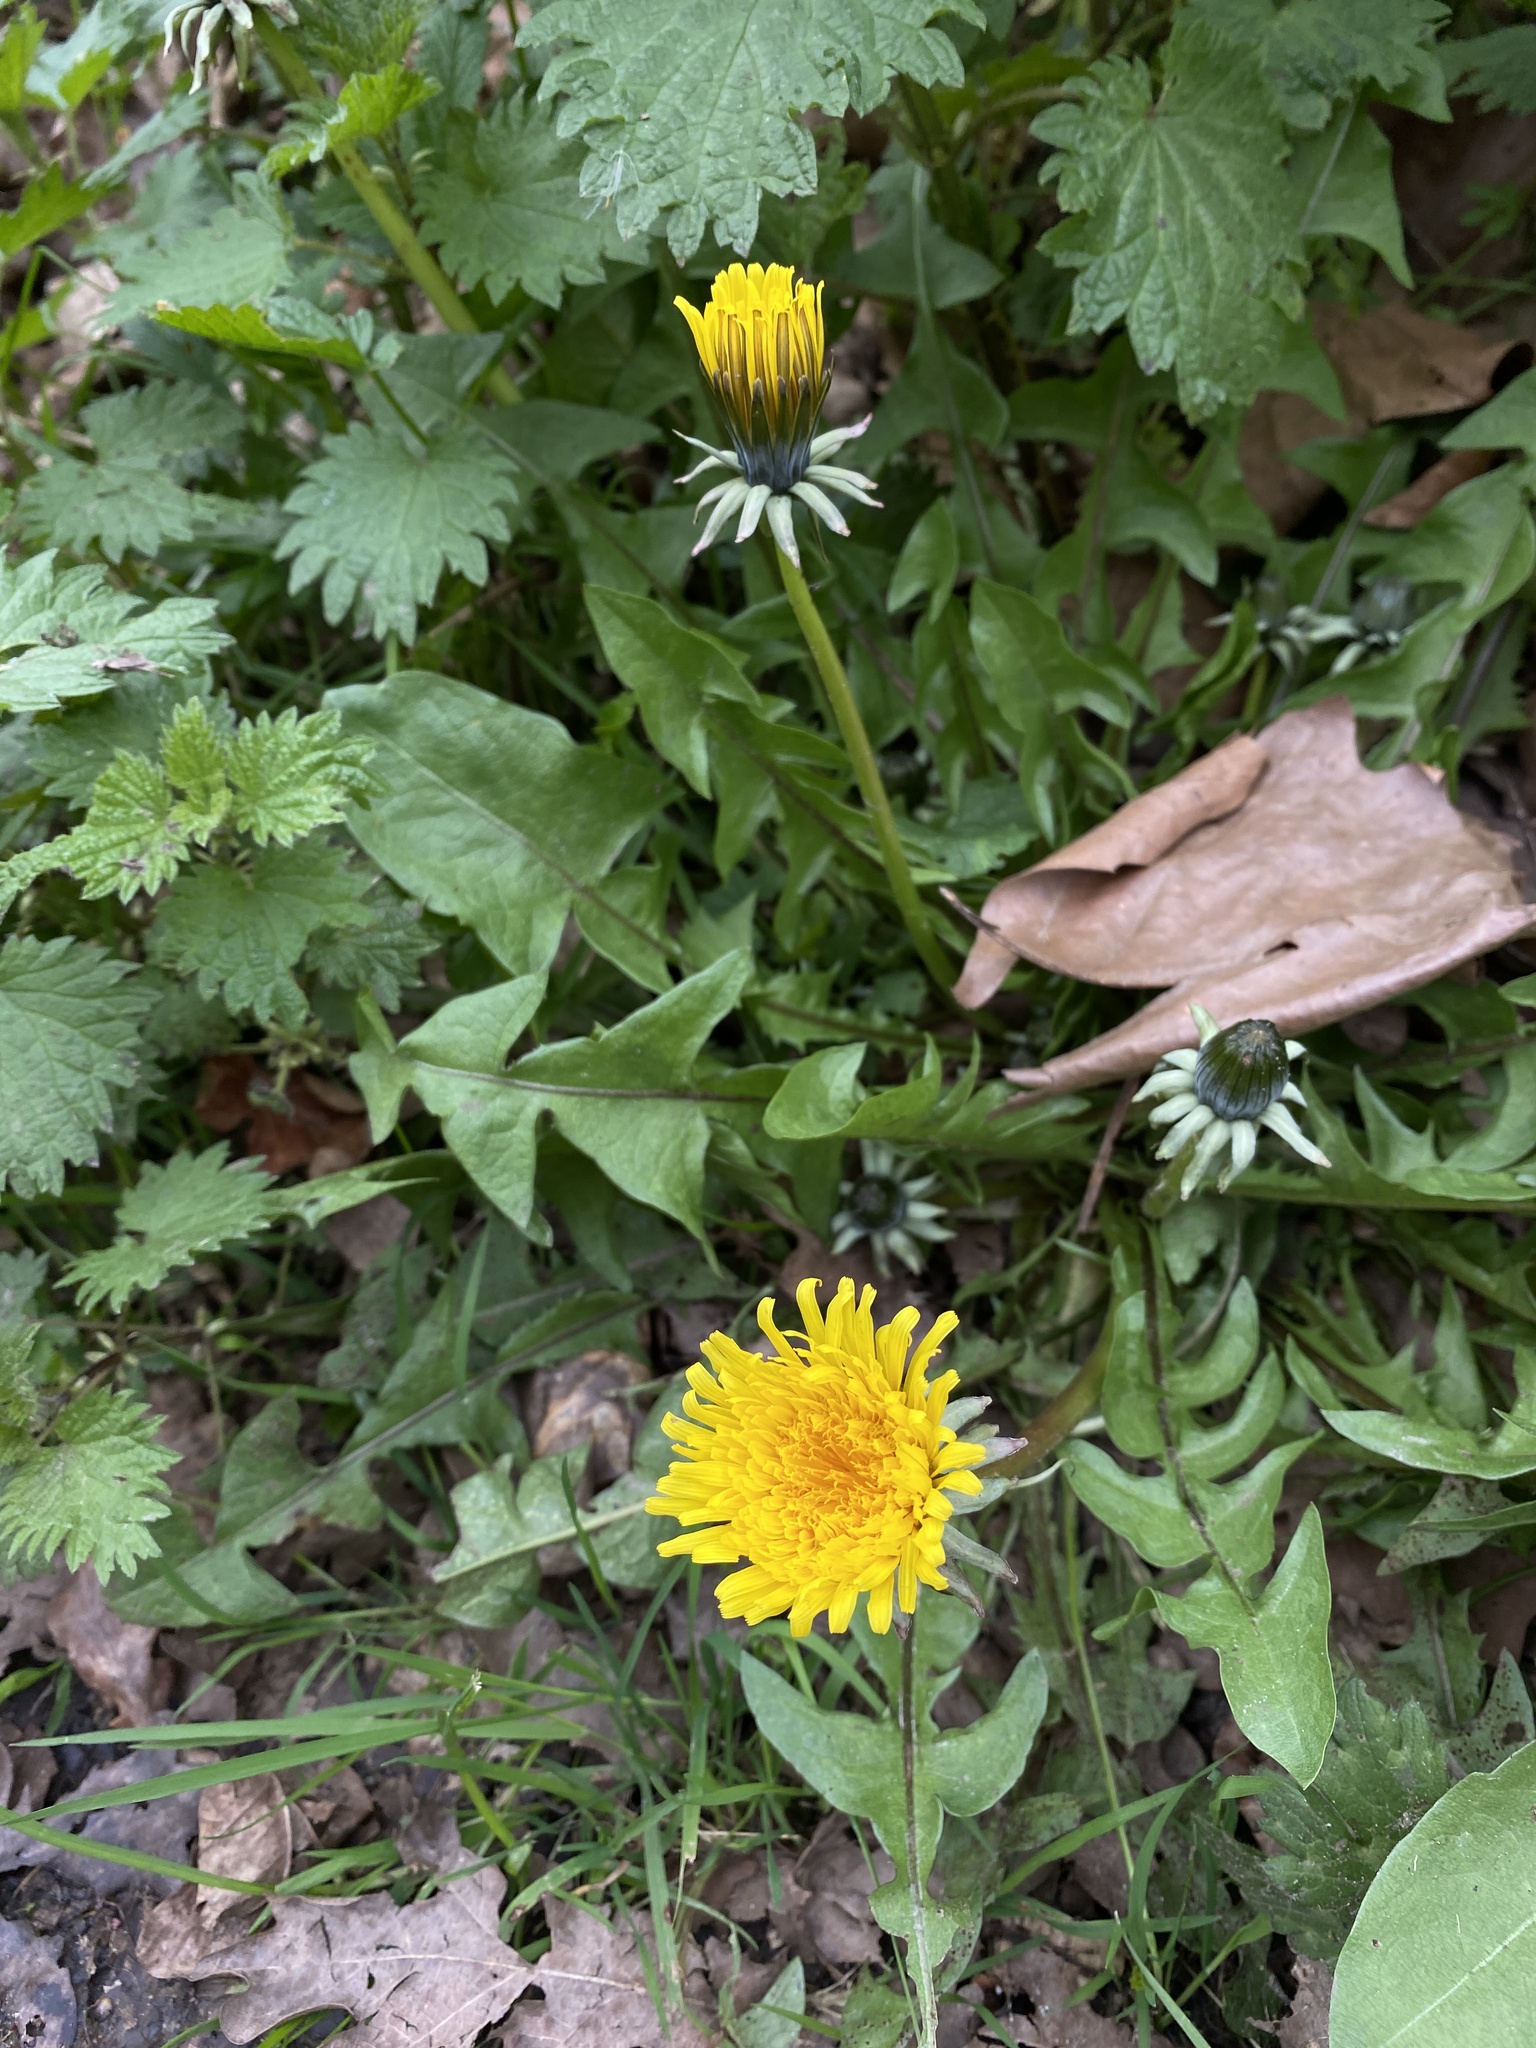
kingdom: Plantae
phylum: Tracheophyta
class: Magnoliopsida
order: Asterales
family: Asteraceae
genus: Taraxacum
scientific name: Taraxacum officinale
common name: Common dandelion
